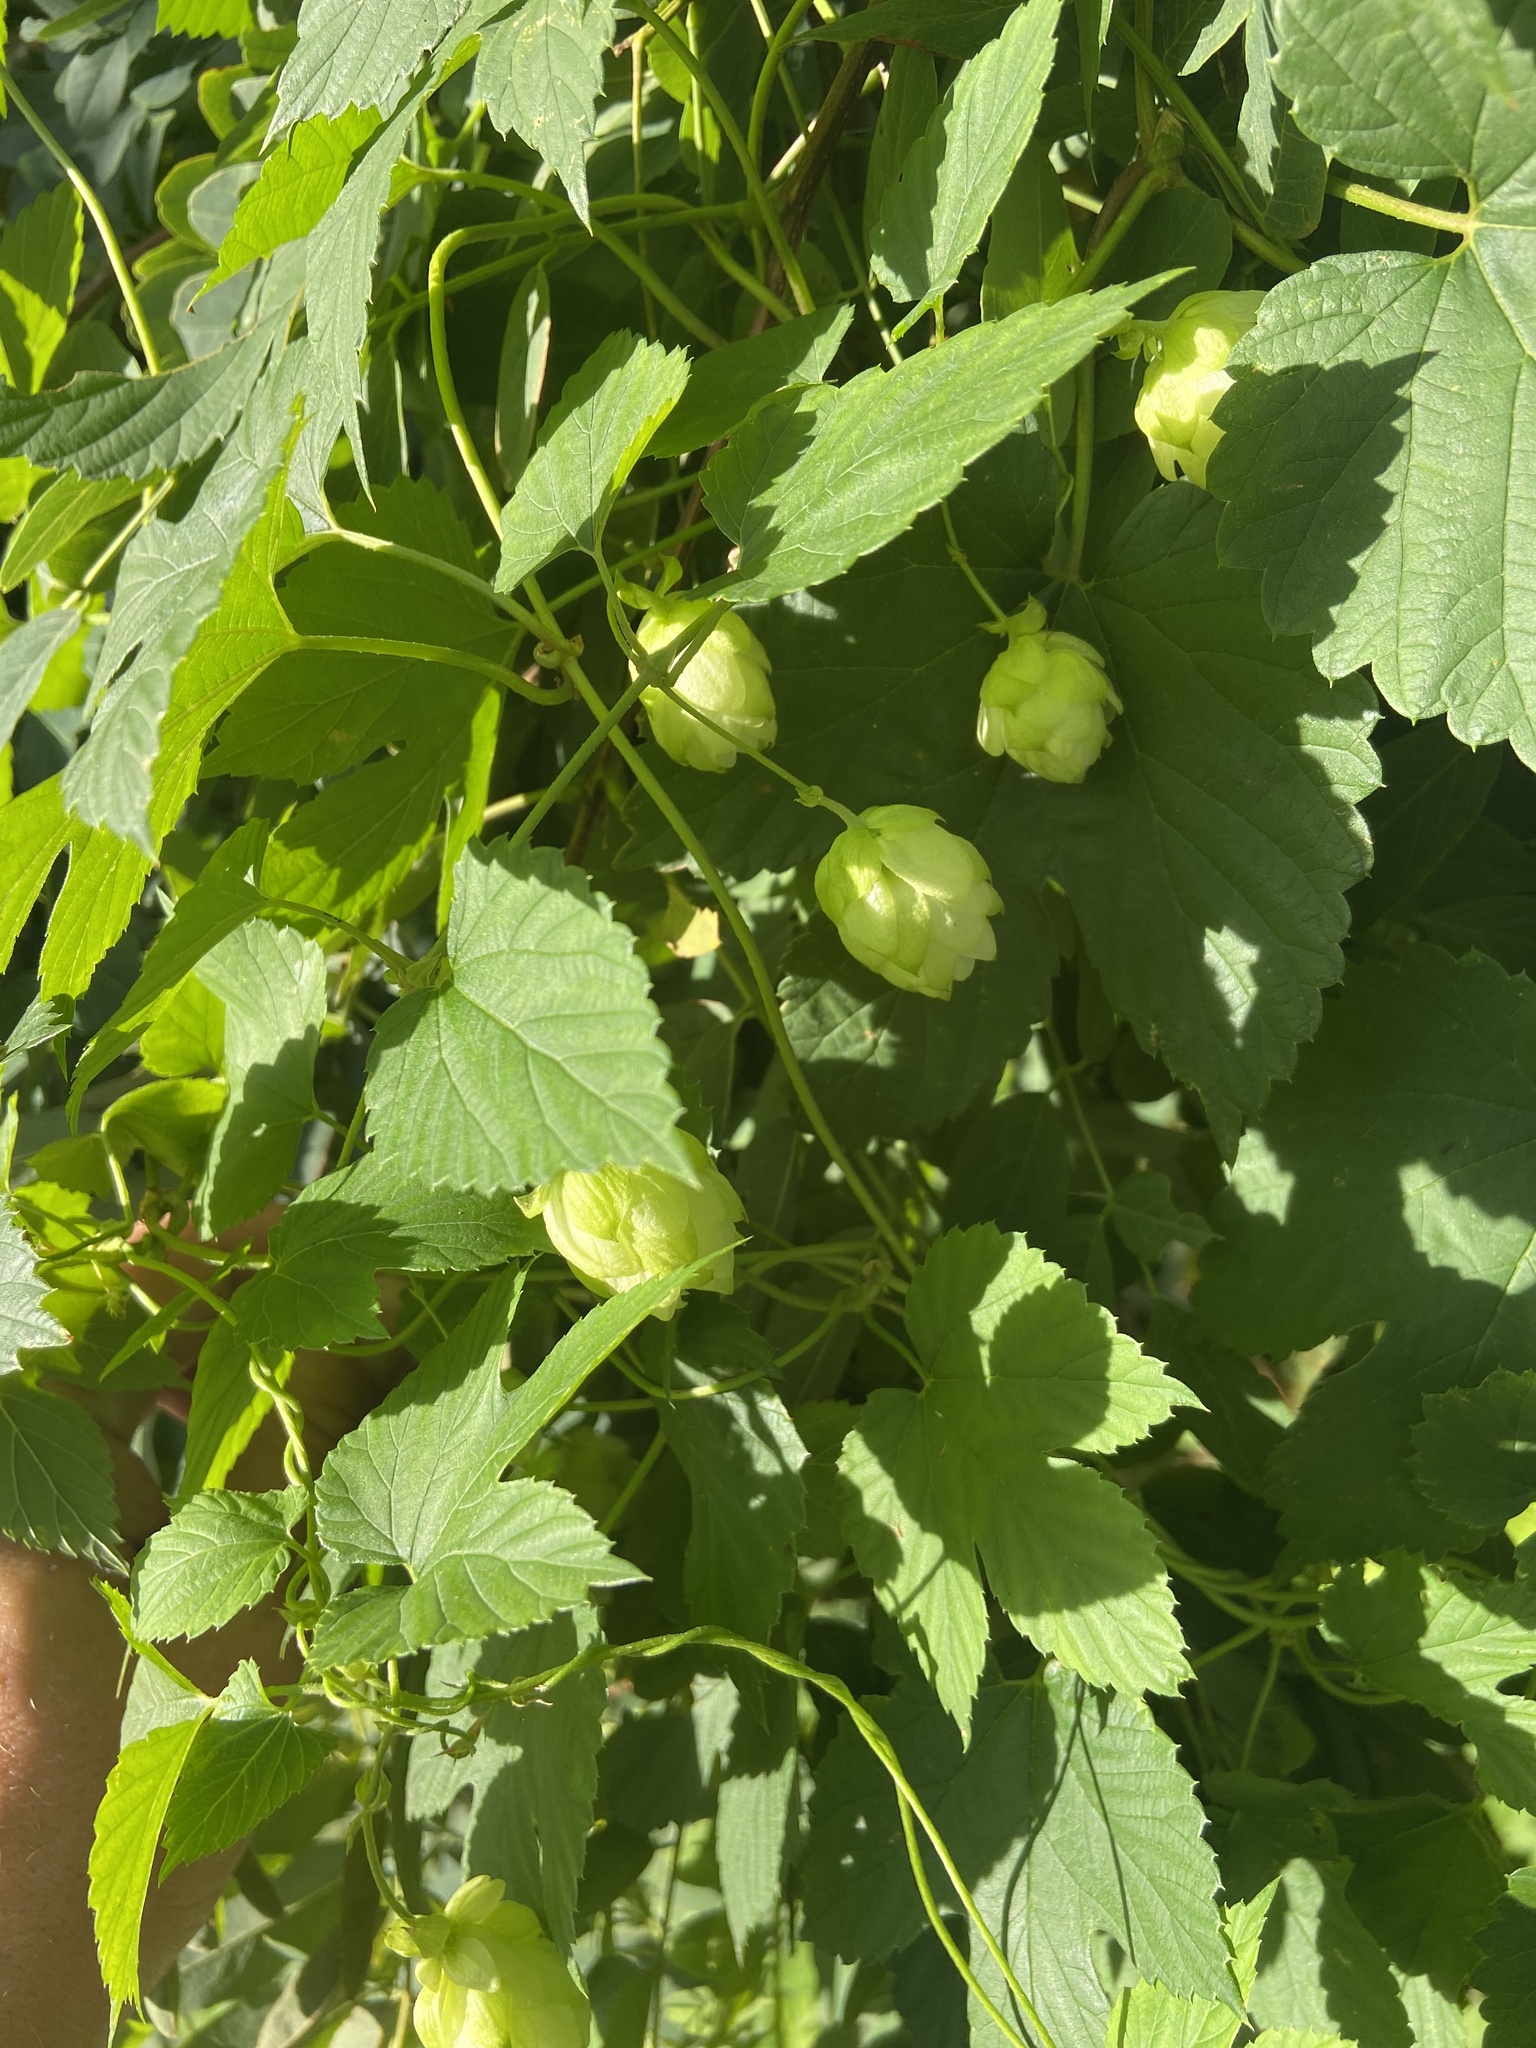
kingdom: Plantae
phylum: Tracheophyta
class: Magnoliopsida
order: Rosales
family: Cannabaceae
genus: Humulus
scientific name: Humulus lupulus
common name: Hop
